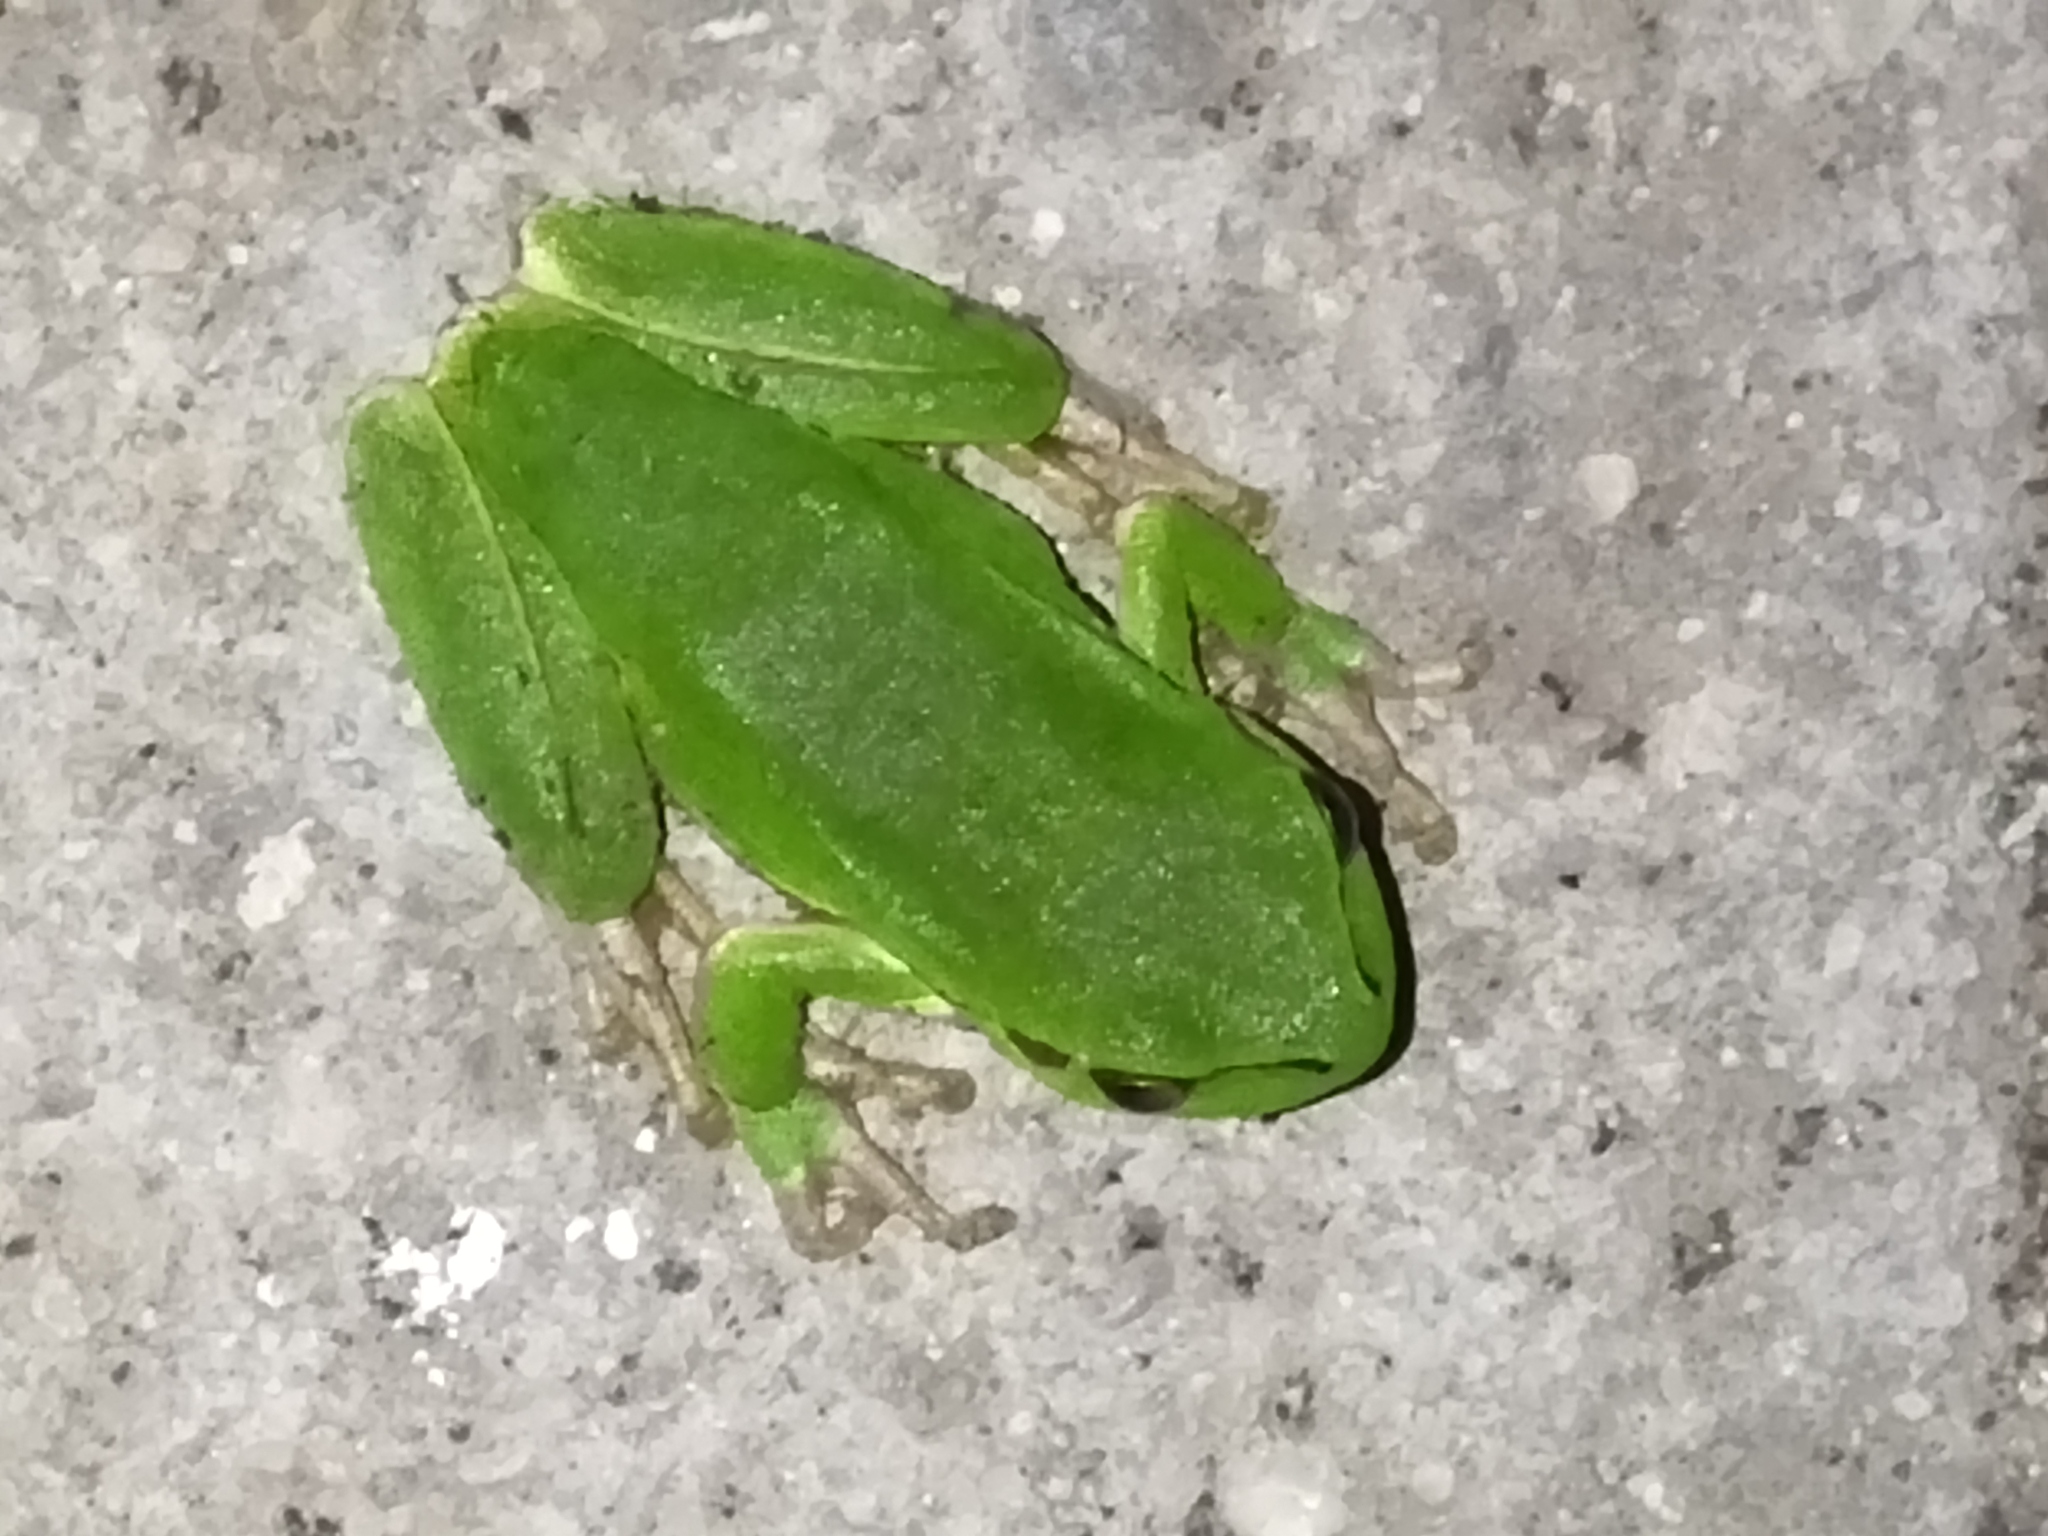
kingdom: Animalia
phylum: Chordata
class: Amphibia
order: Anura
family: Hylidae
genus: Hyla
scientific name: Hyla orientalis
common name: Caucasian treefrog
